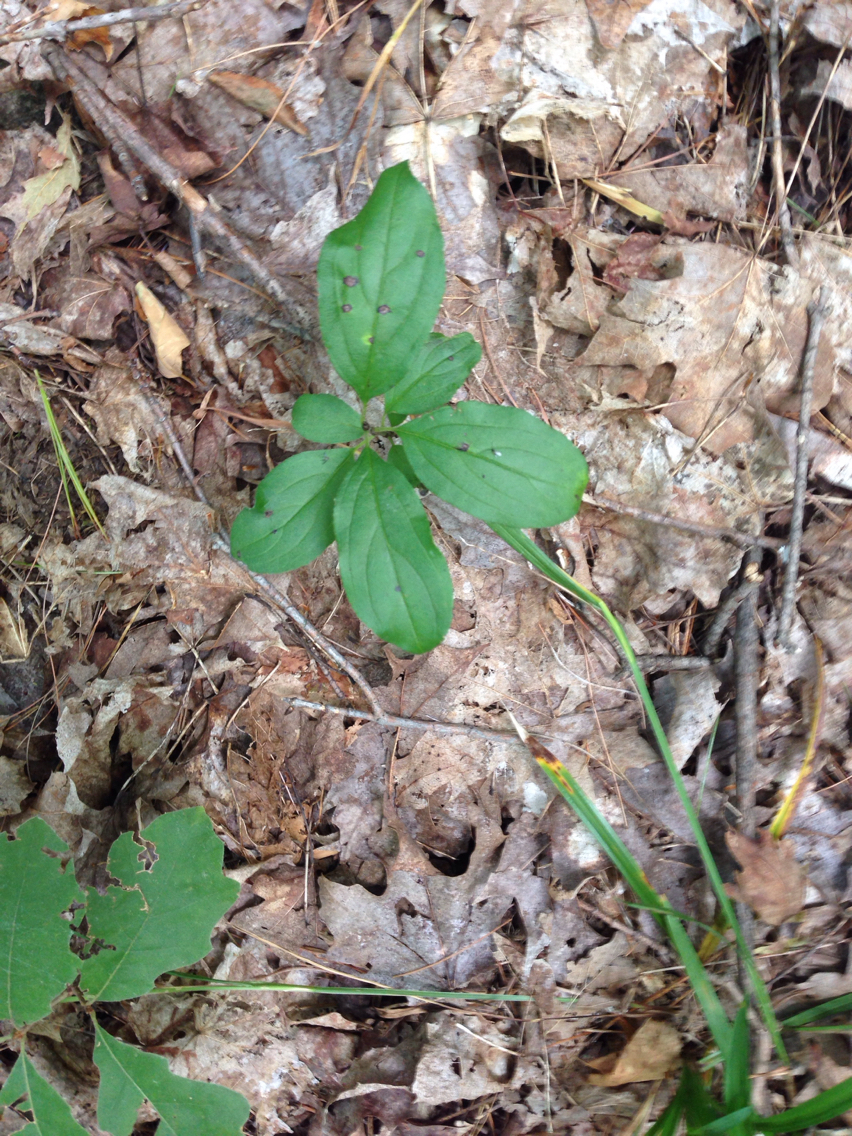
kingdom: Plantae
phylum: Tracheophyta
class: Magnoliopsida
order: Rosales
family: Rhamnaceae
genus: Rhamnus
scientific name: Rhamnus cathartica
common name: Common buckthorn
